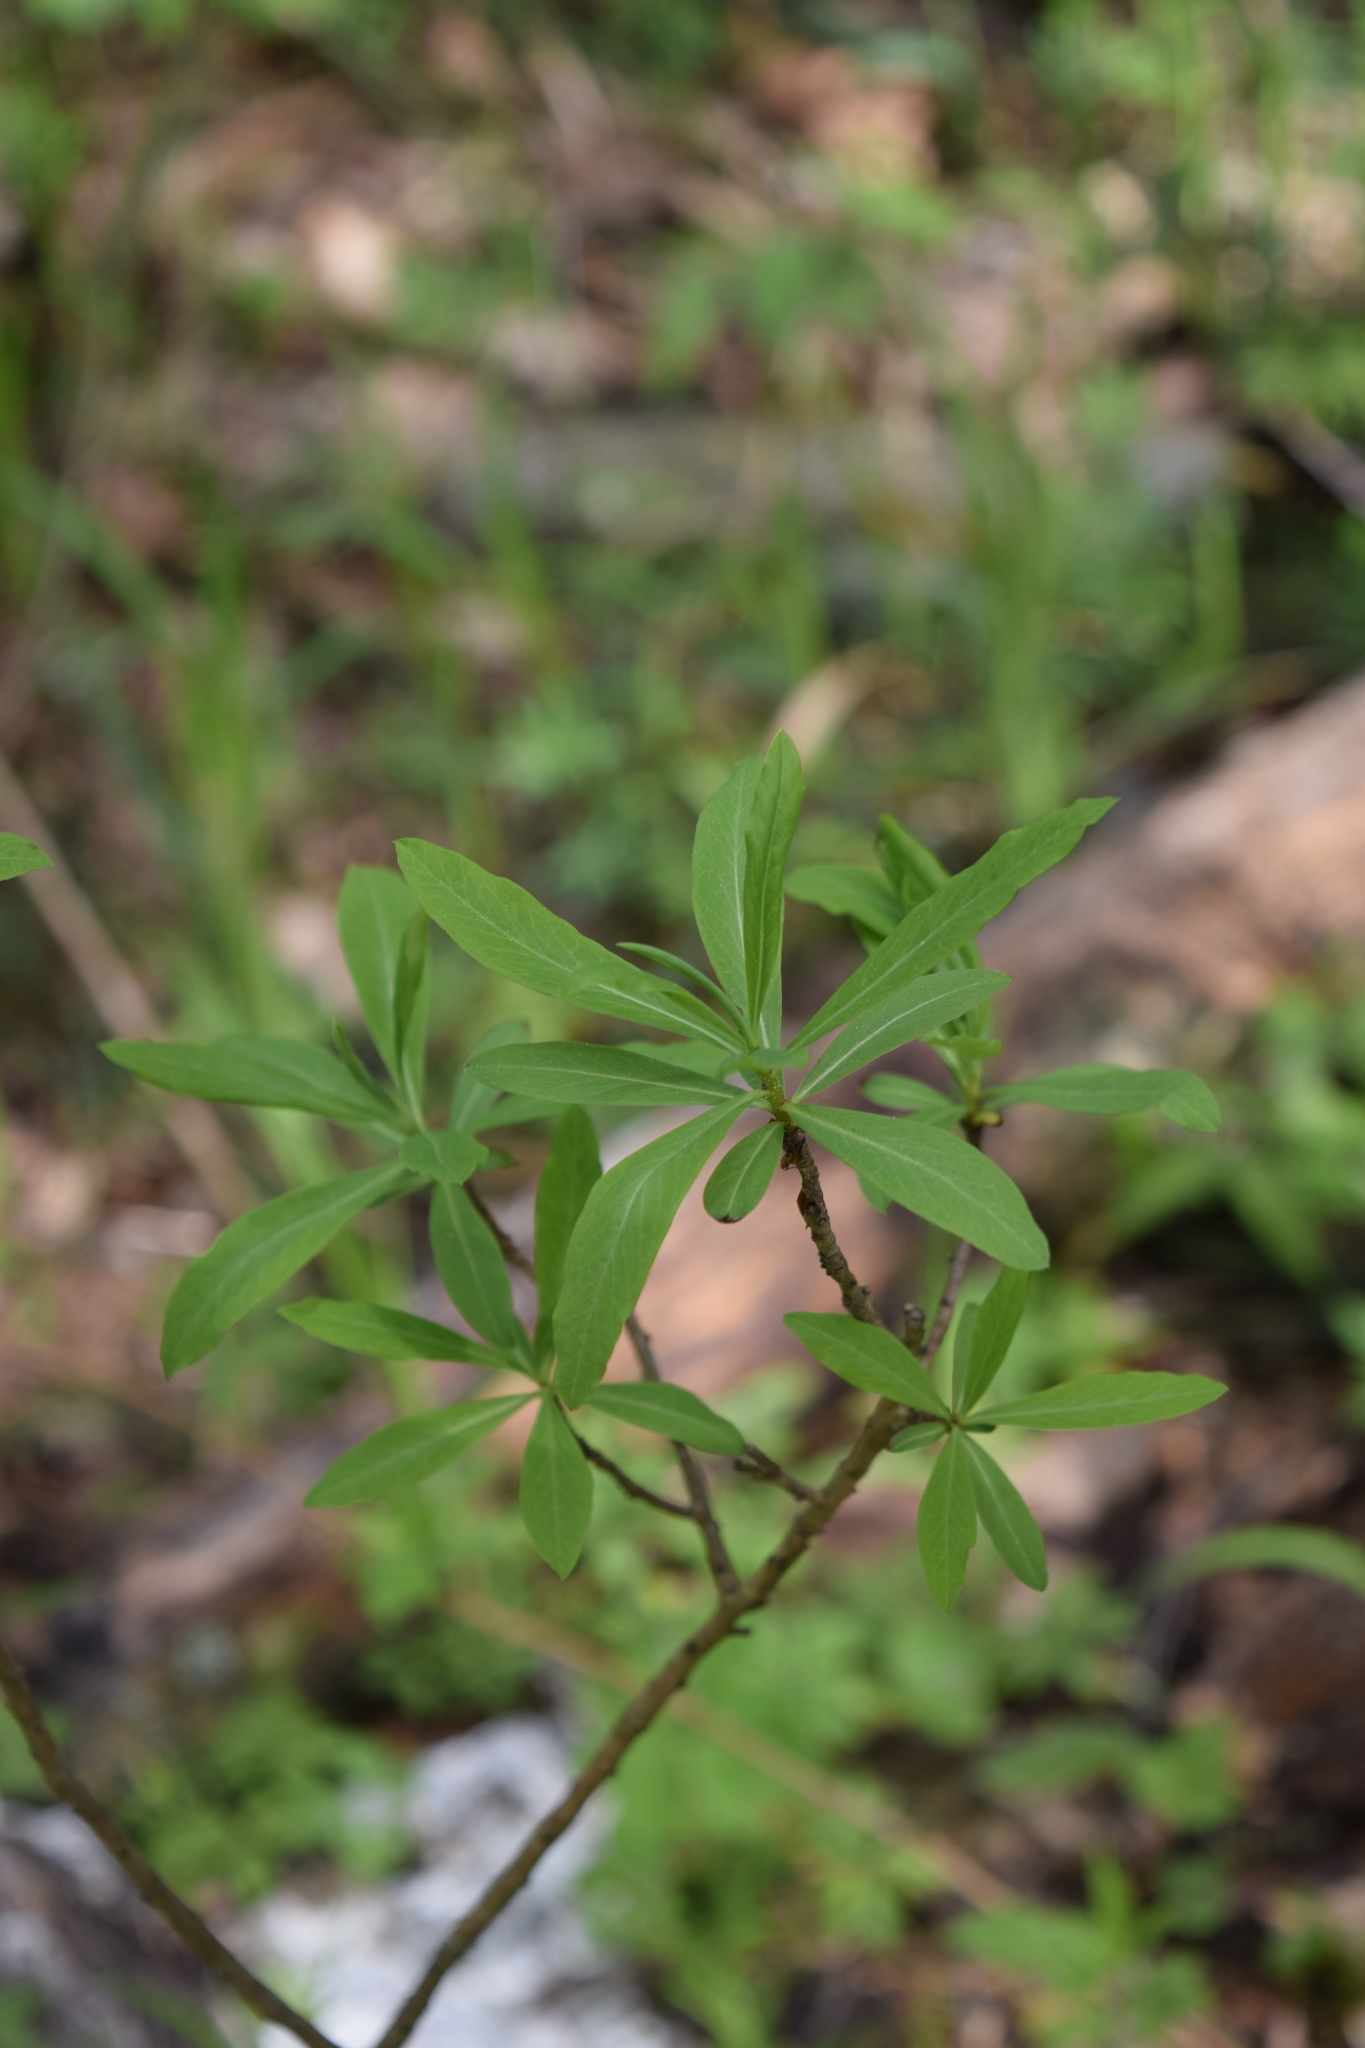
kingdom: Plantae
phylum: Tracheophyta
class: Magnoliopsida
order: Malvales
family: Thymelaeaceae
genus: Daphne
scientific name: Daphne mezereum
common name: Mezereon
